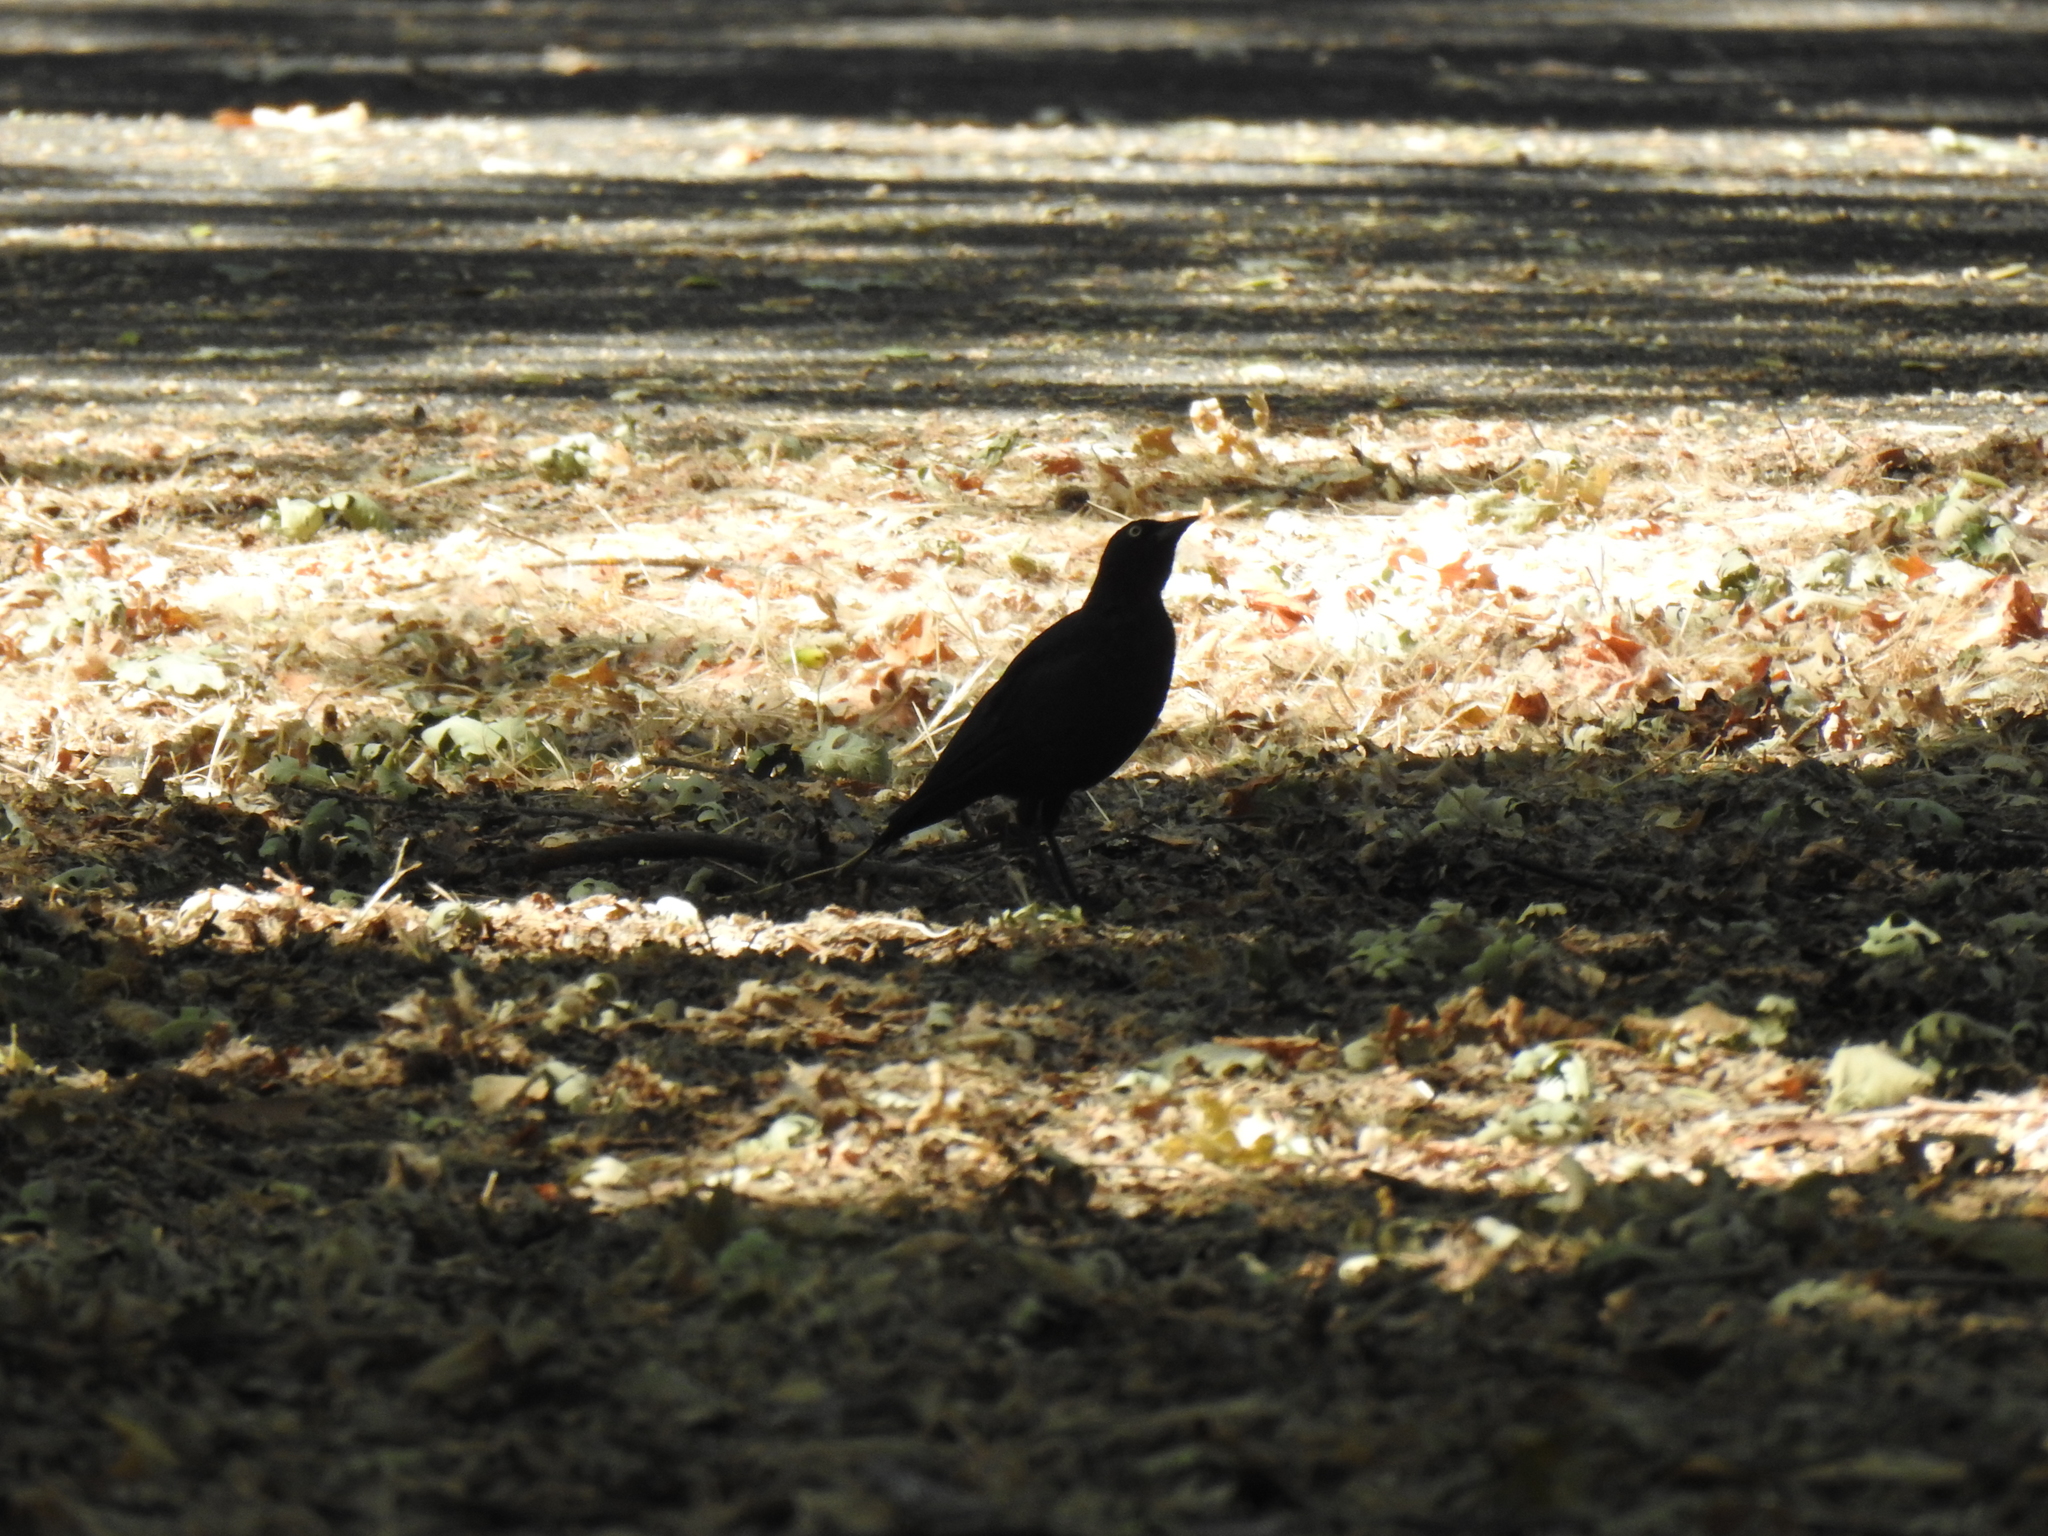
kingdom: Animalia
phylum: Chordata
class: Aves
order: Passeriformes
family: Icteridae
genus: Euphagus
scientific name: Euphagus cyanocephalus
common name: Brewer's blackbird
